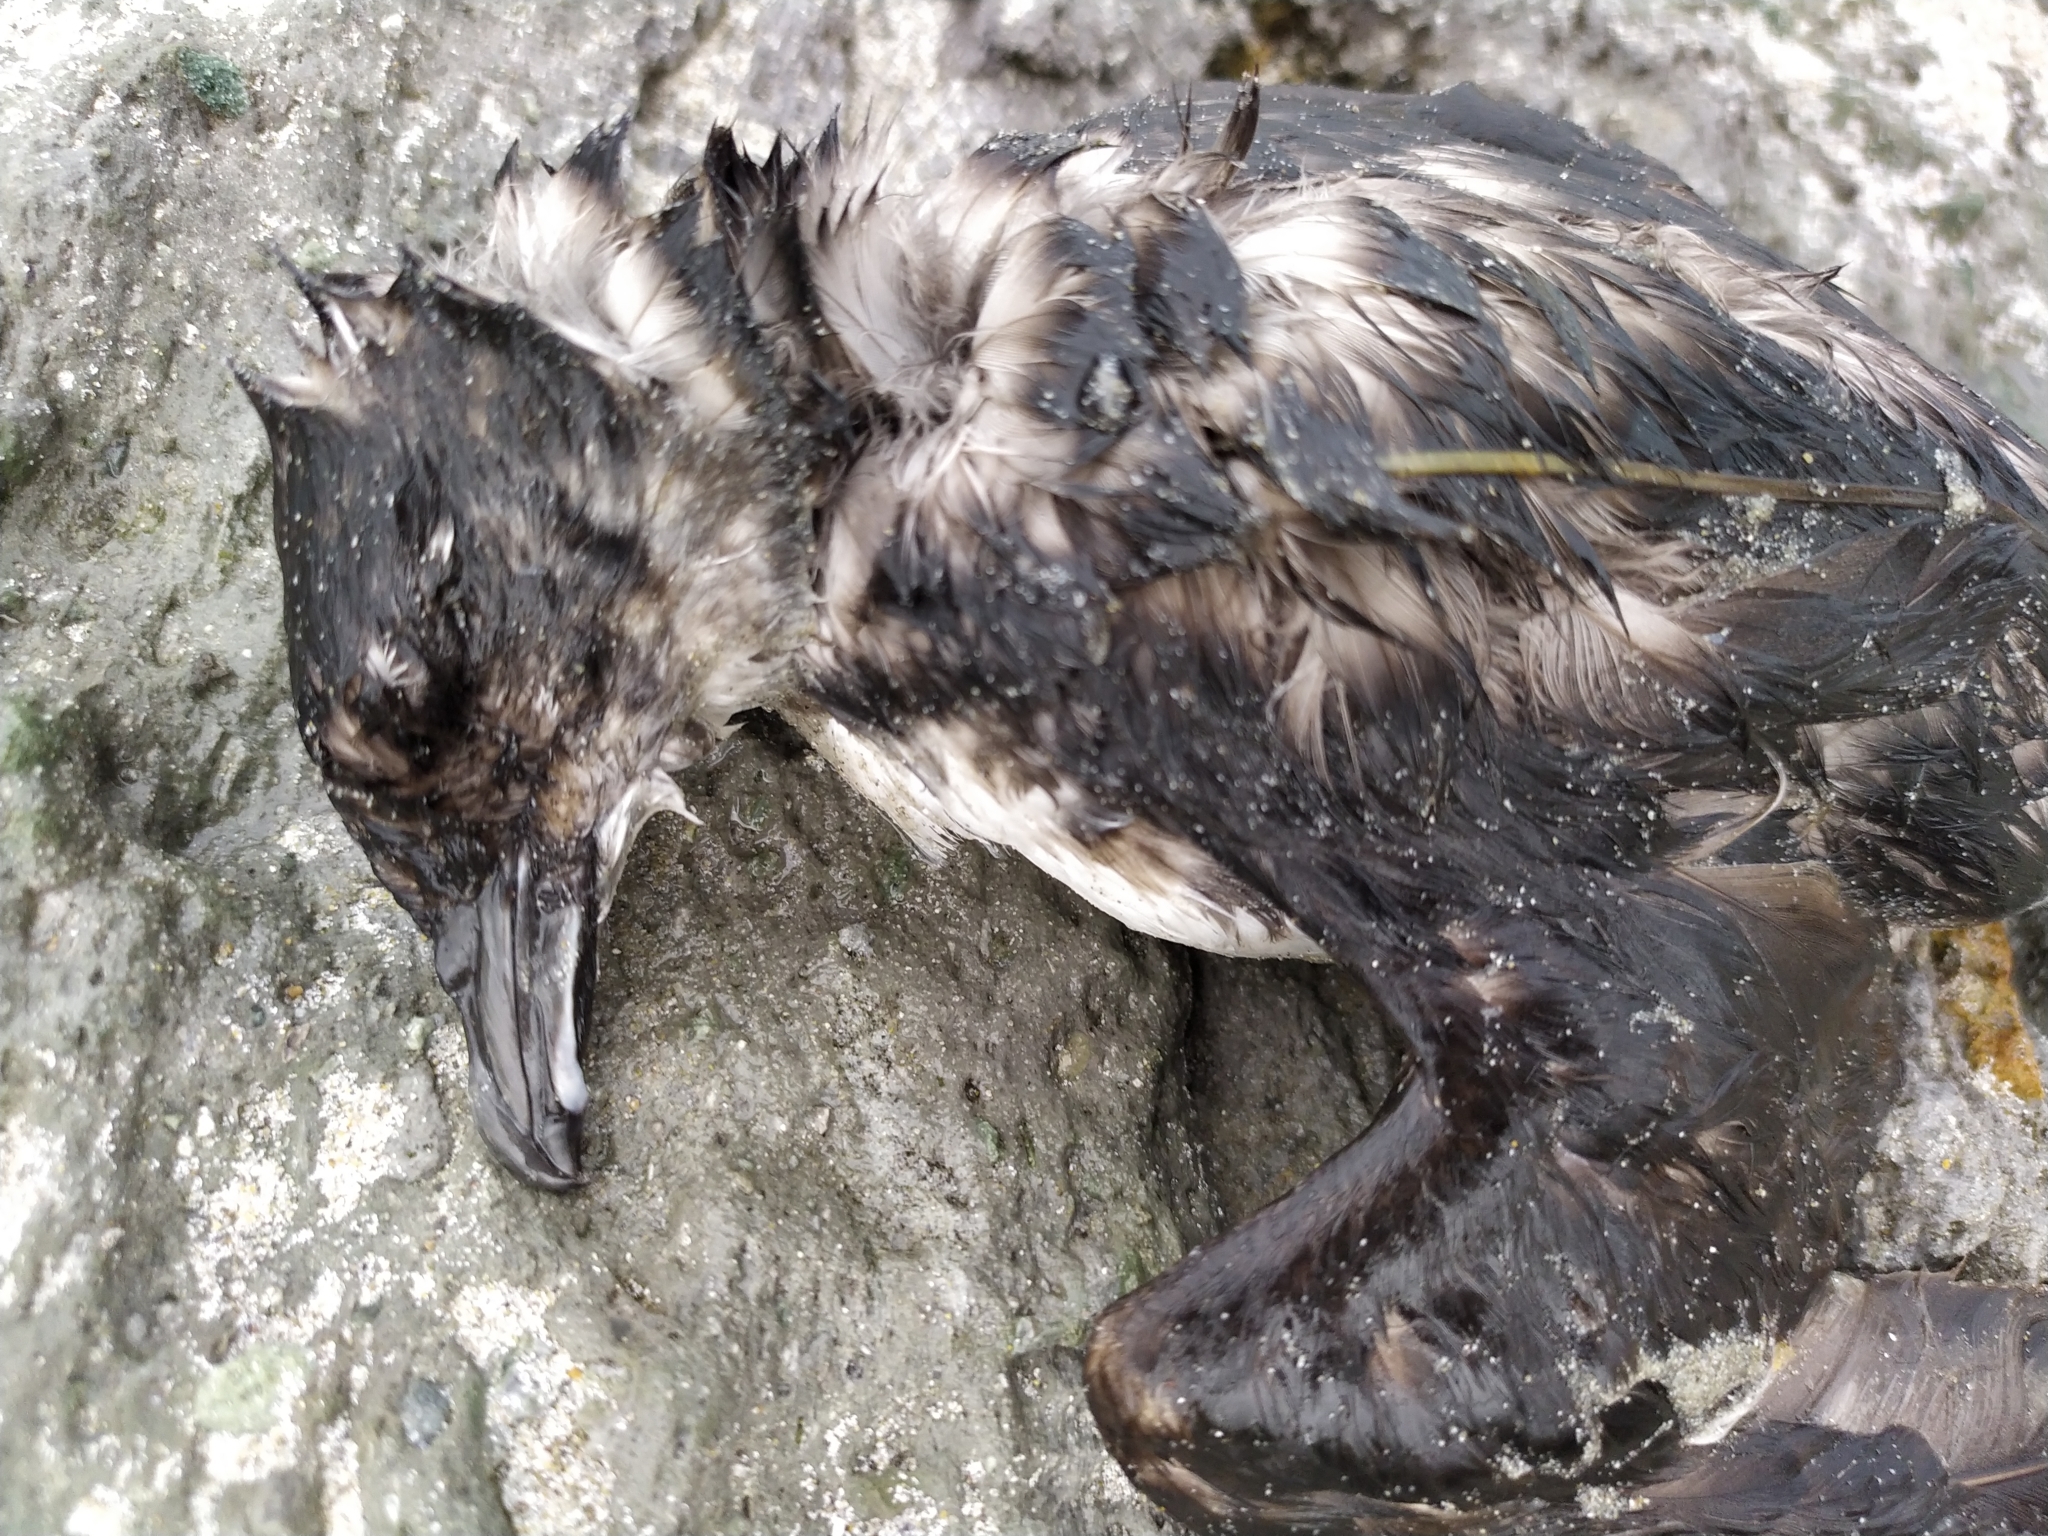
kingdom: Animalia
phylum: Chordata
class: Aves
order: Procellariiformes
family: Pelecanoididae
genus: Pelecanoides
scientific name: Pelecanoides urinatrix
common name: Common diving-petrel
